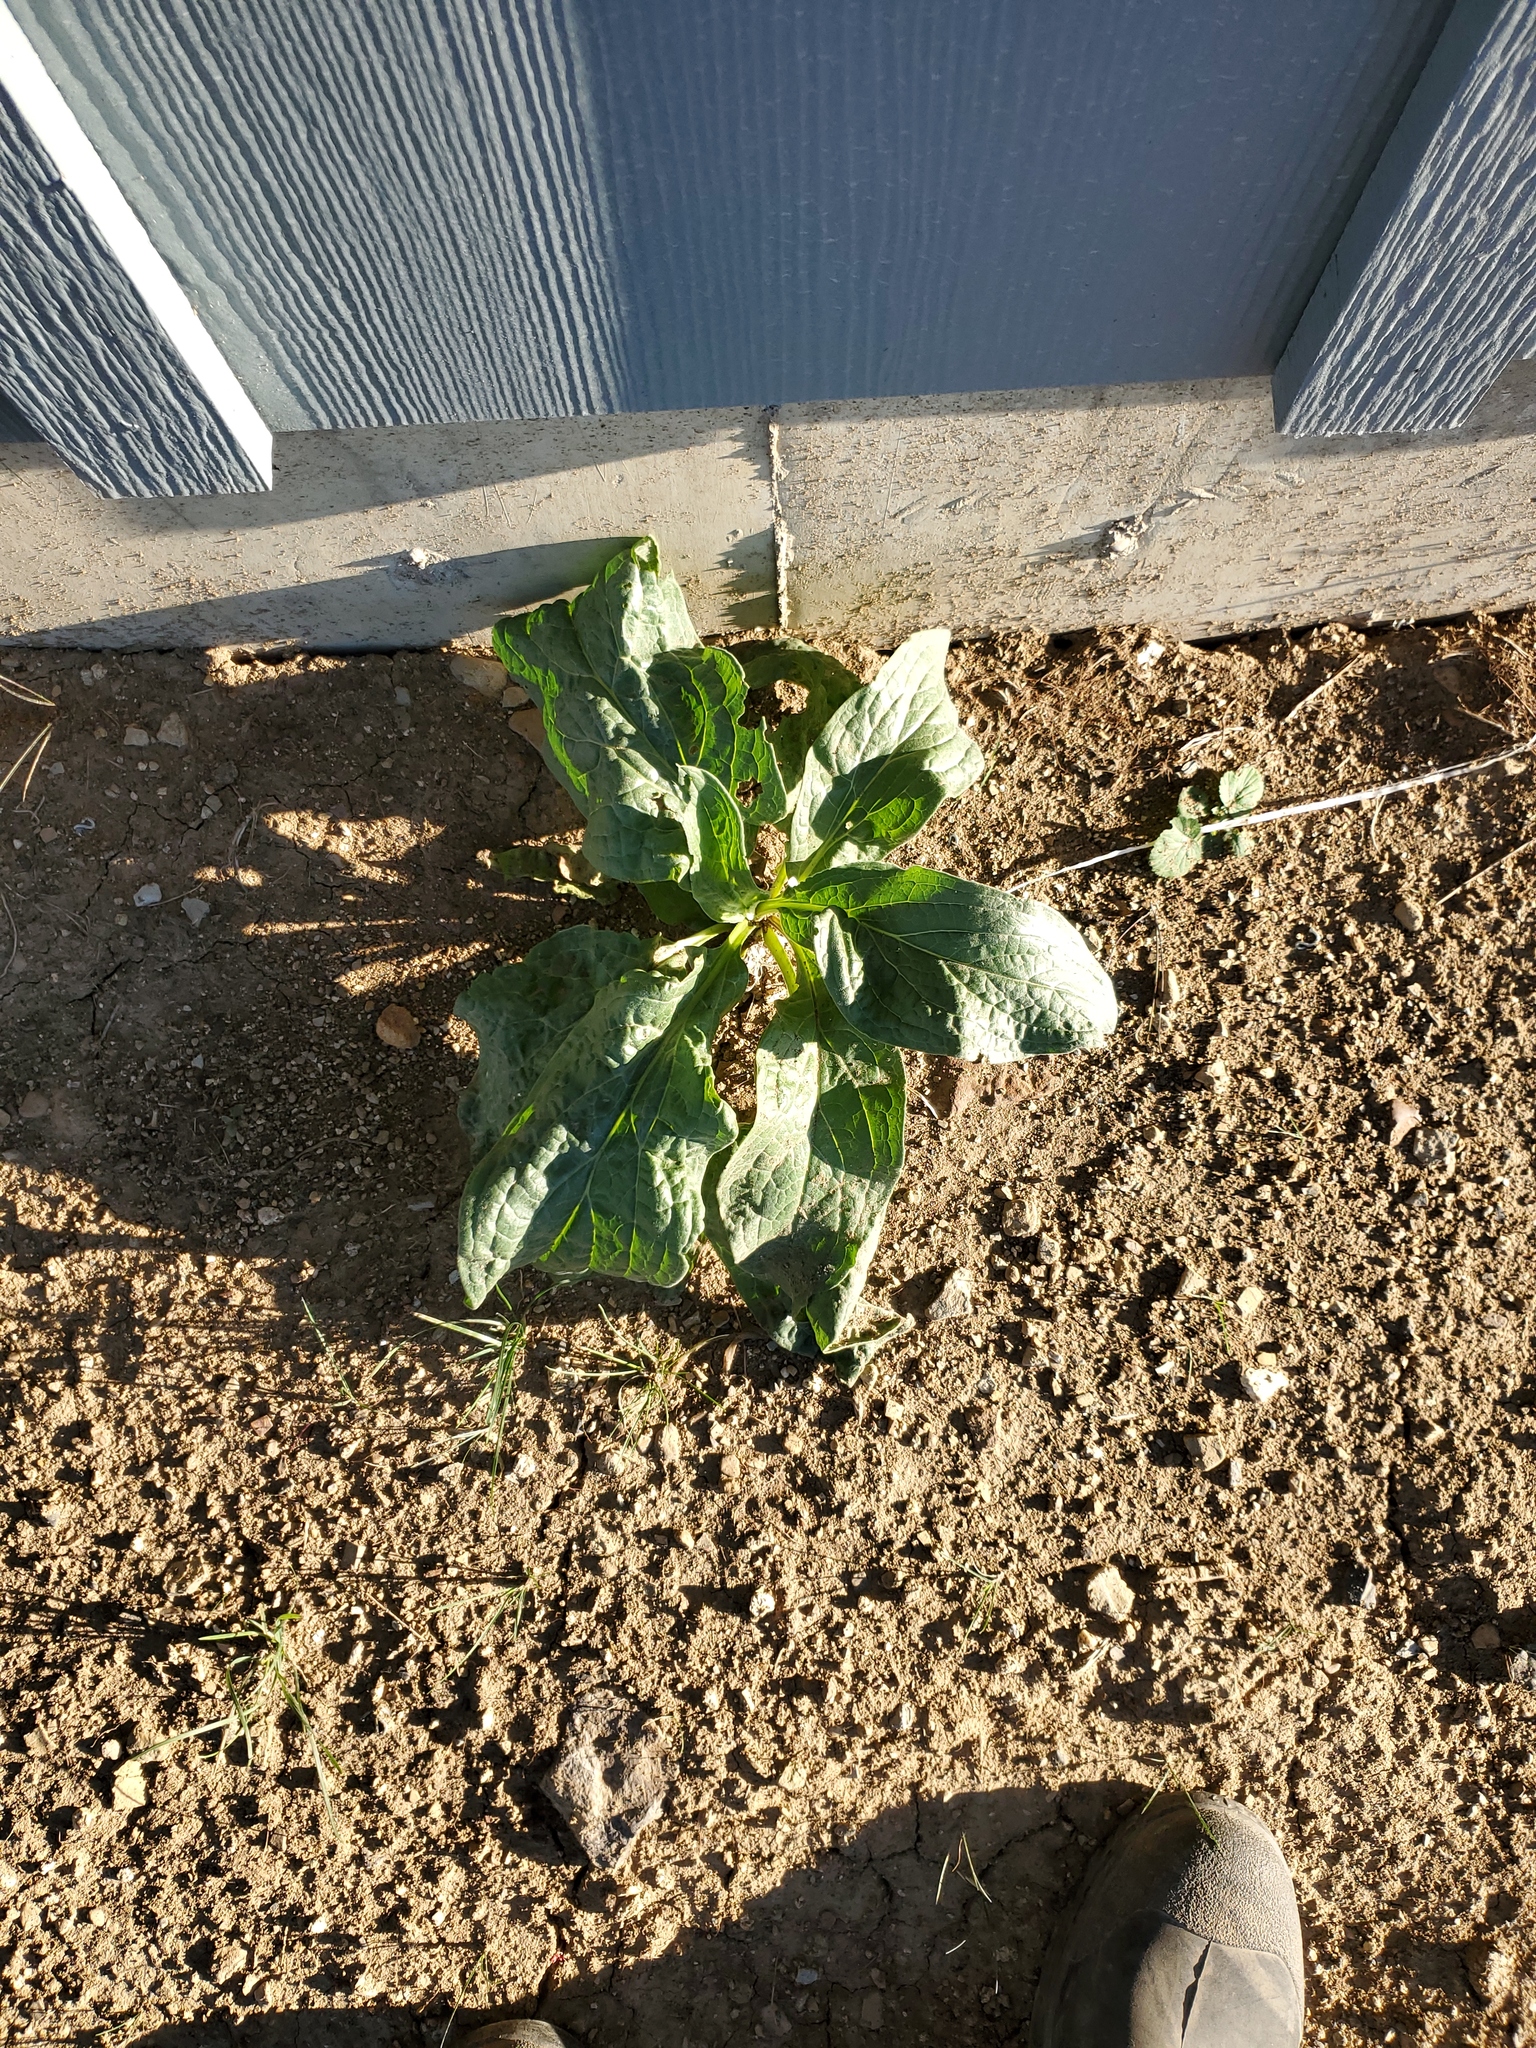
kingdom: Plantae
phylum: Tracheophyta
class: Magnoliopsida
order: Boraginales
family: Boraginaceae
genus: Cynoglossum
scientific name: Cynoglossum officinale
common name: Hound's-tongue
